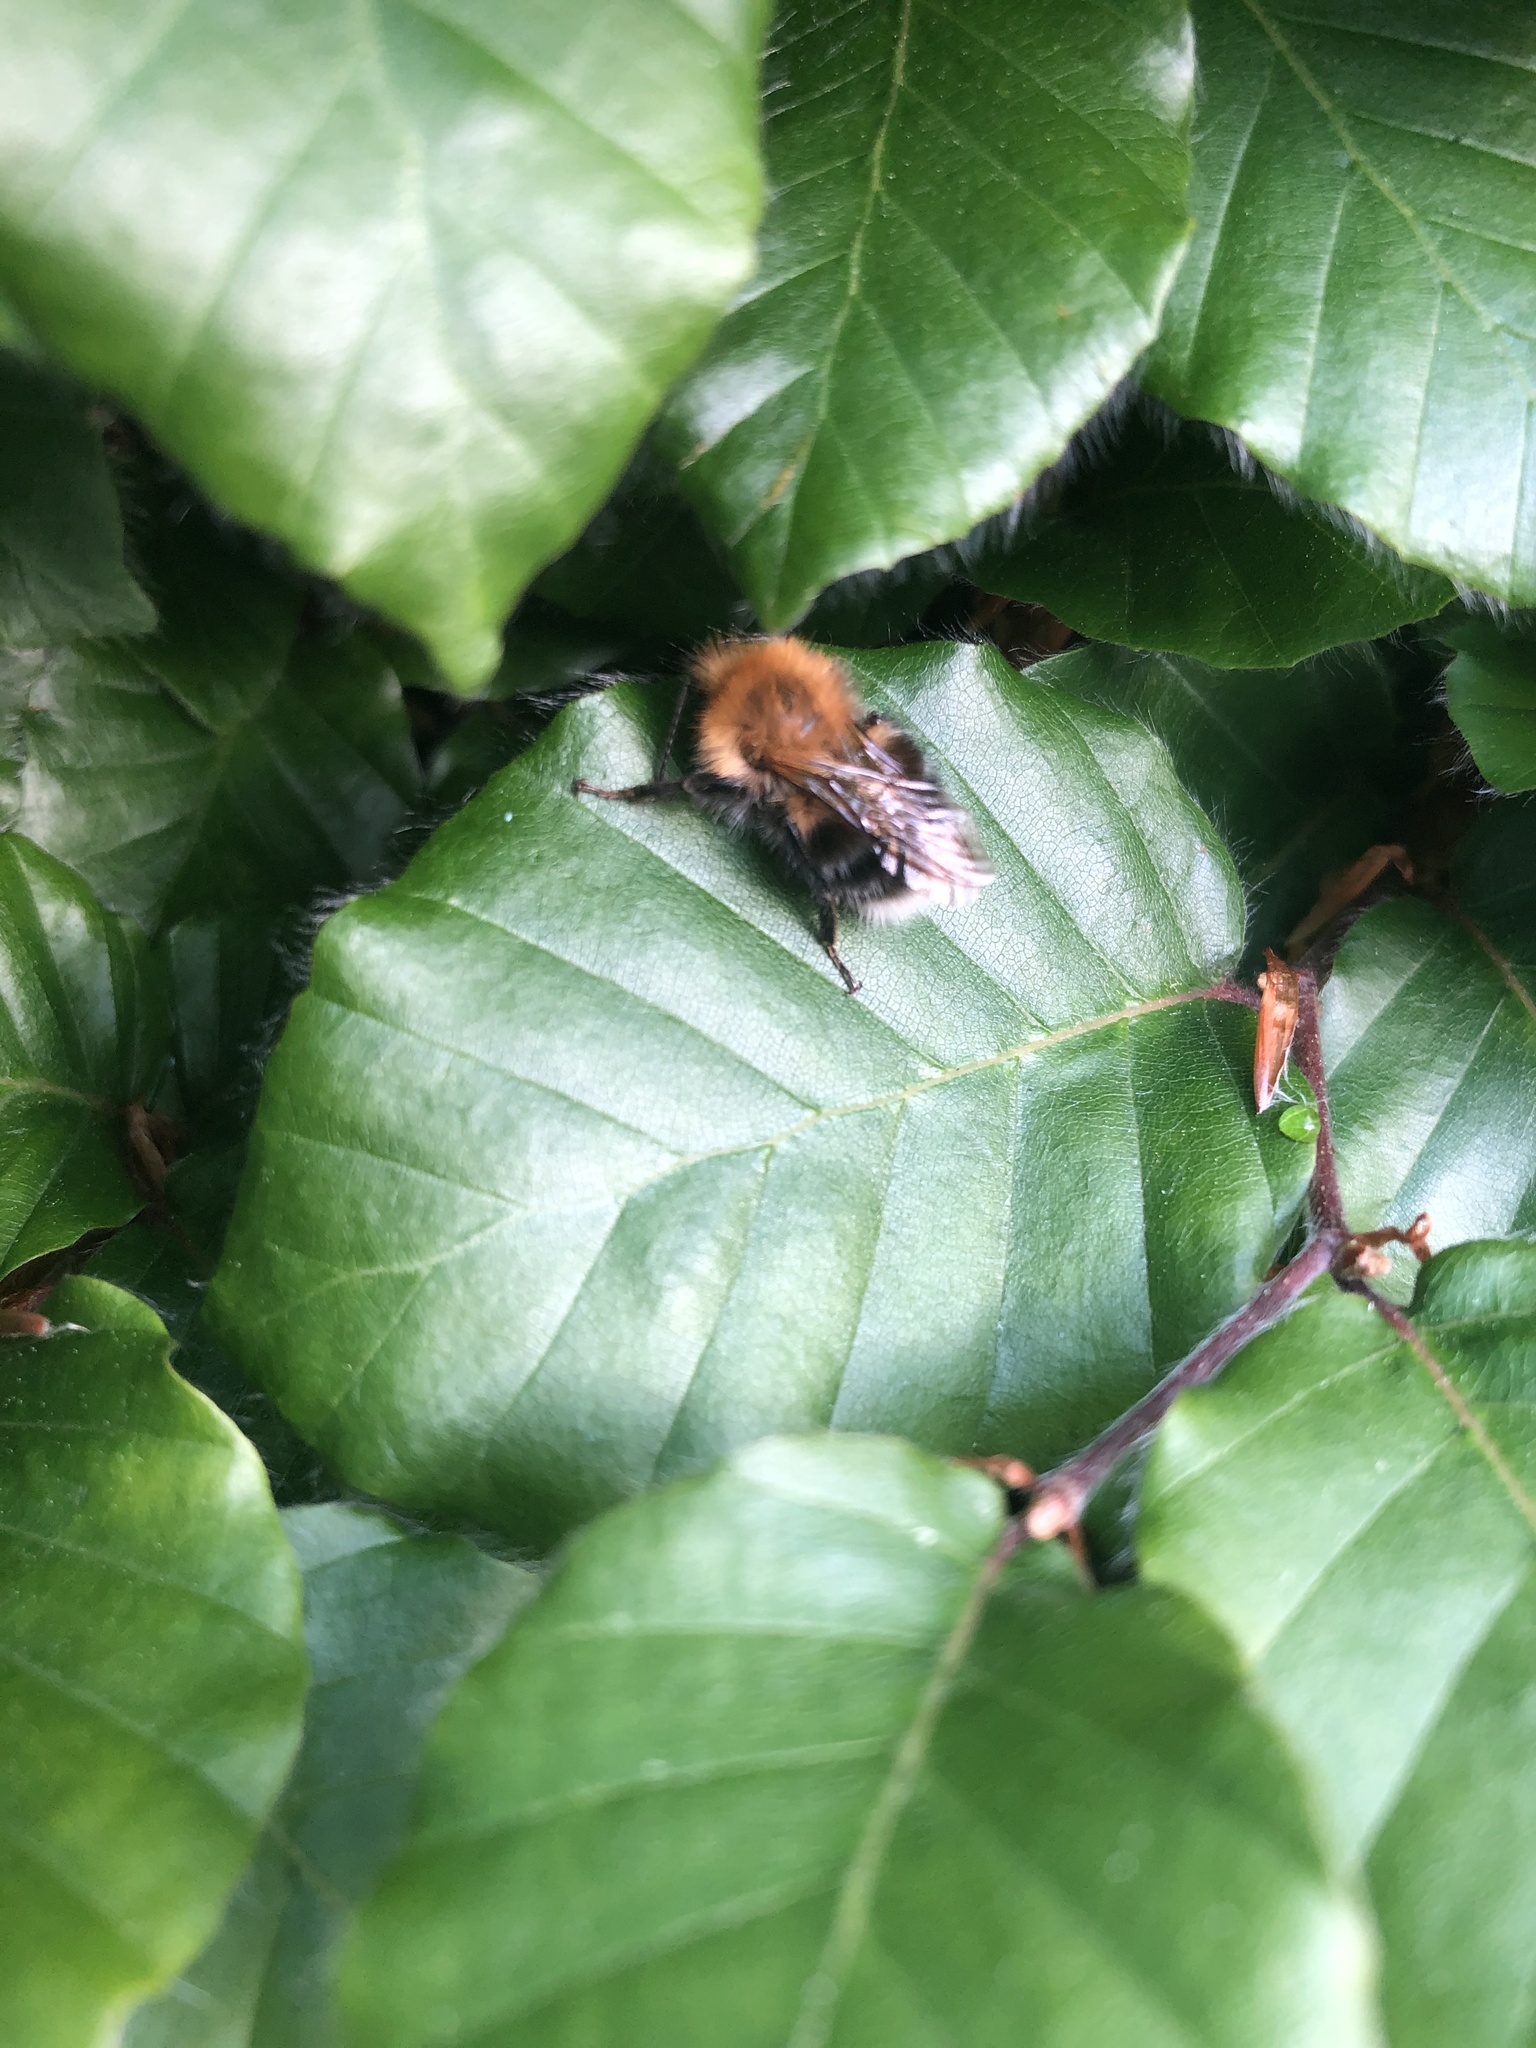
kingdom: Animalia
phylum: Arthropoda
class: Insecta
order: Hymenoptera
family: Apidae
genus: Bombus
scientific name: Bombus hypnorum
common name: New garden bumblebee
